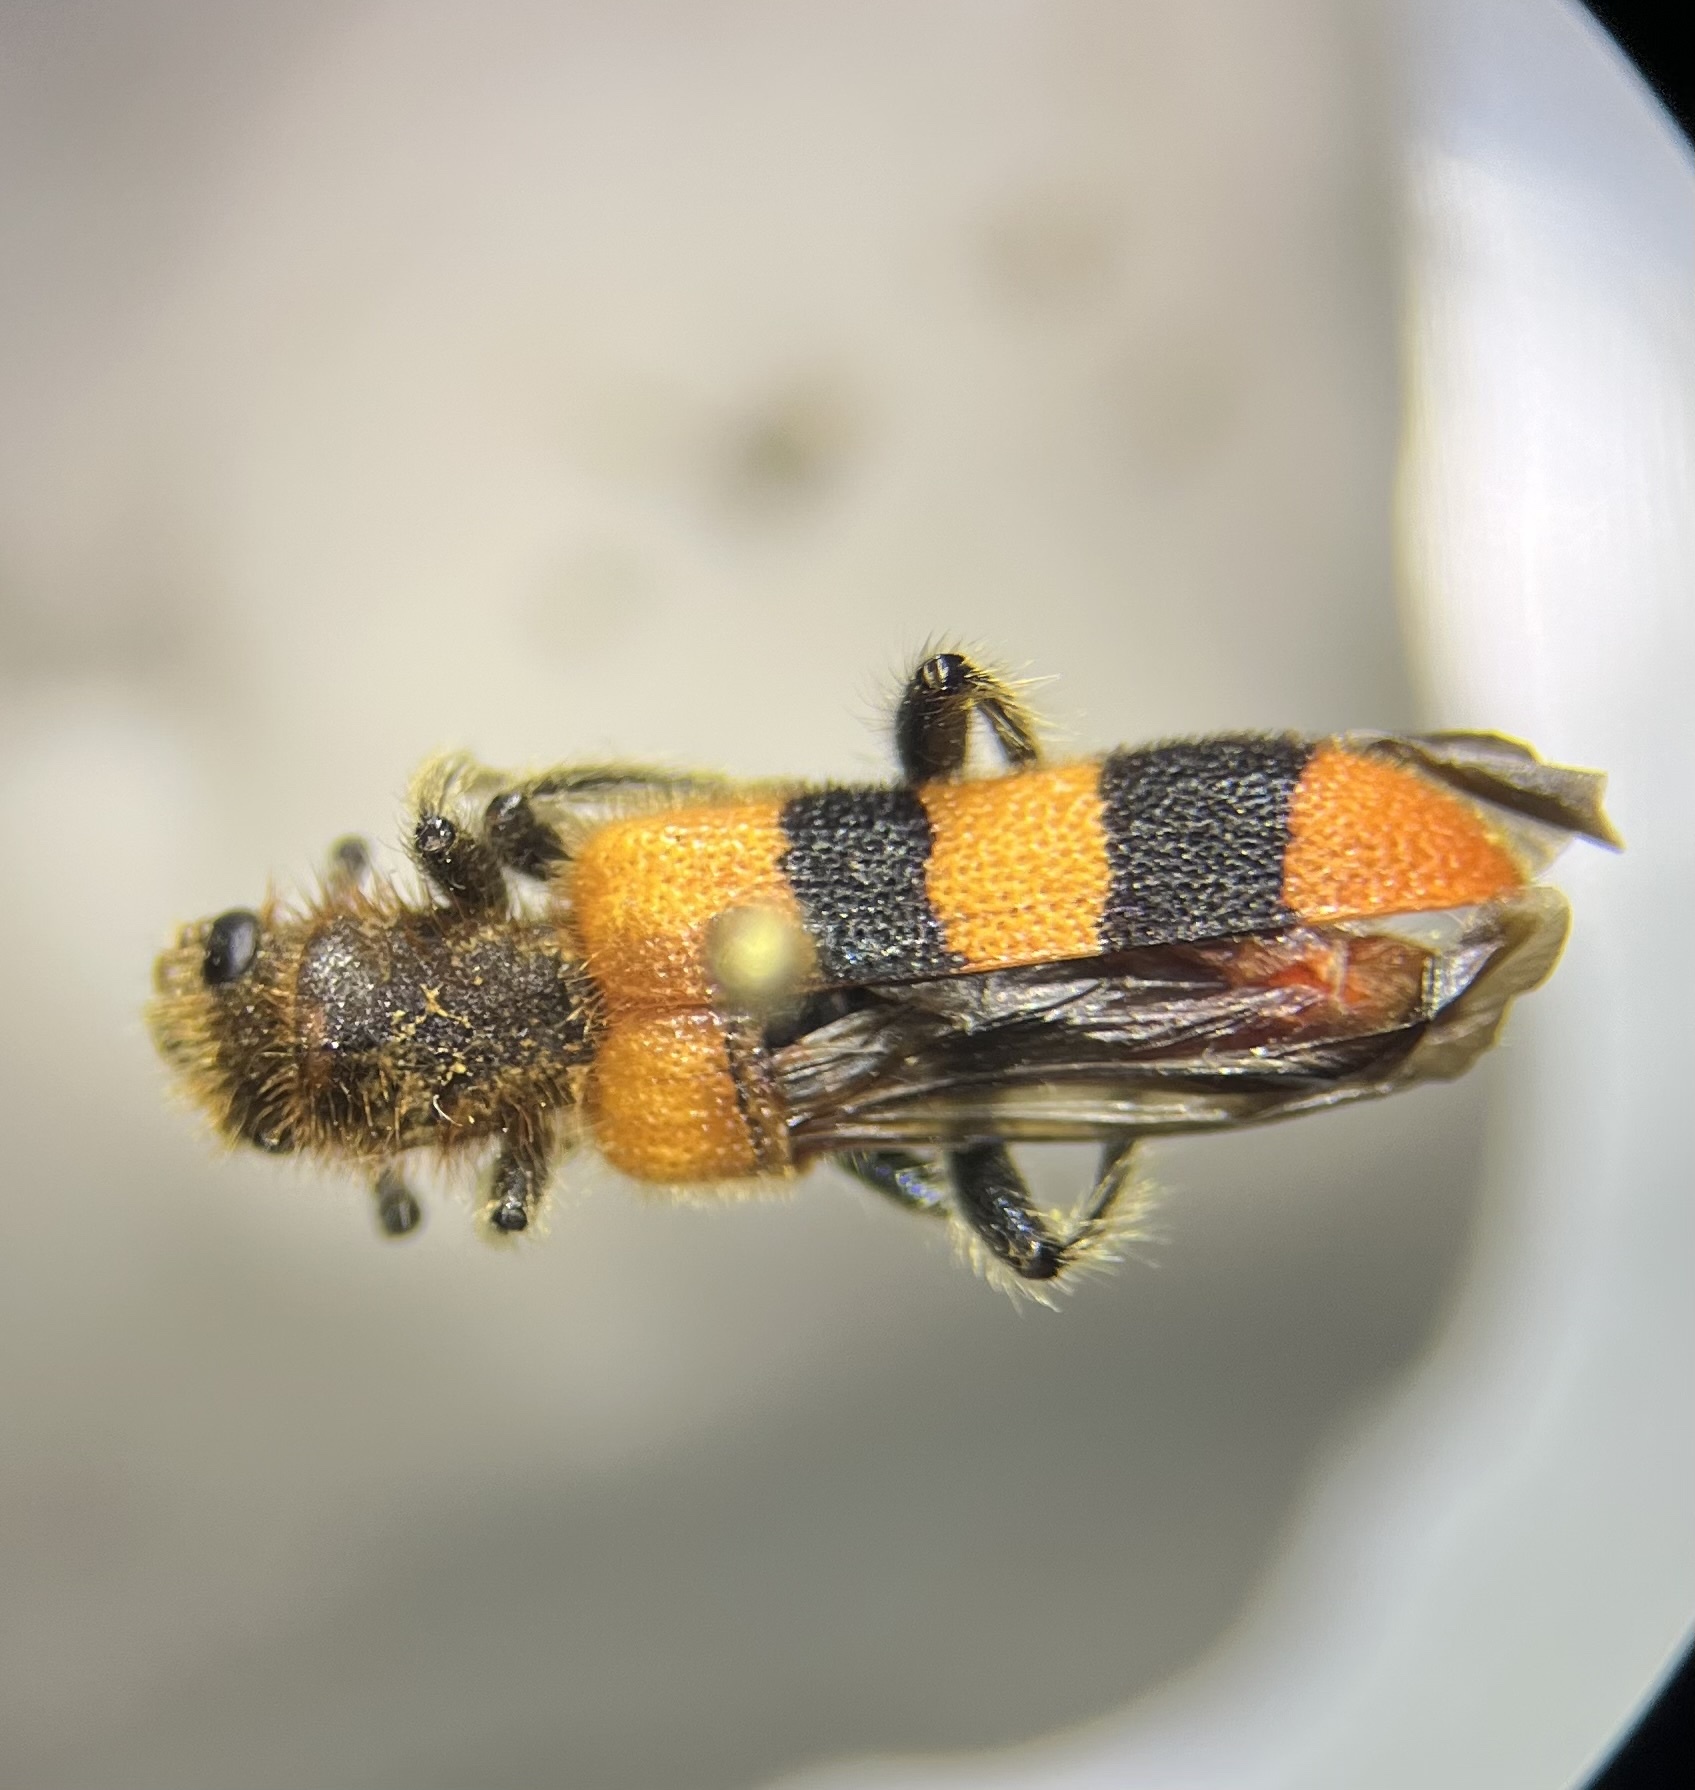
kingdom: Animalia
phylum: Arthropoda
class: Insecta
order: Coleoptera
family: Cleridae
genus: Trichodes
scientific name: Trichodes bibalteatus
